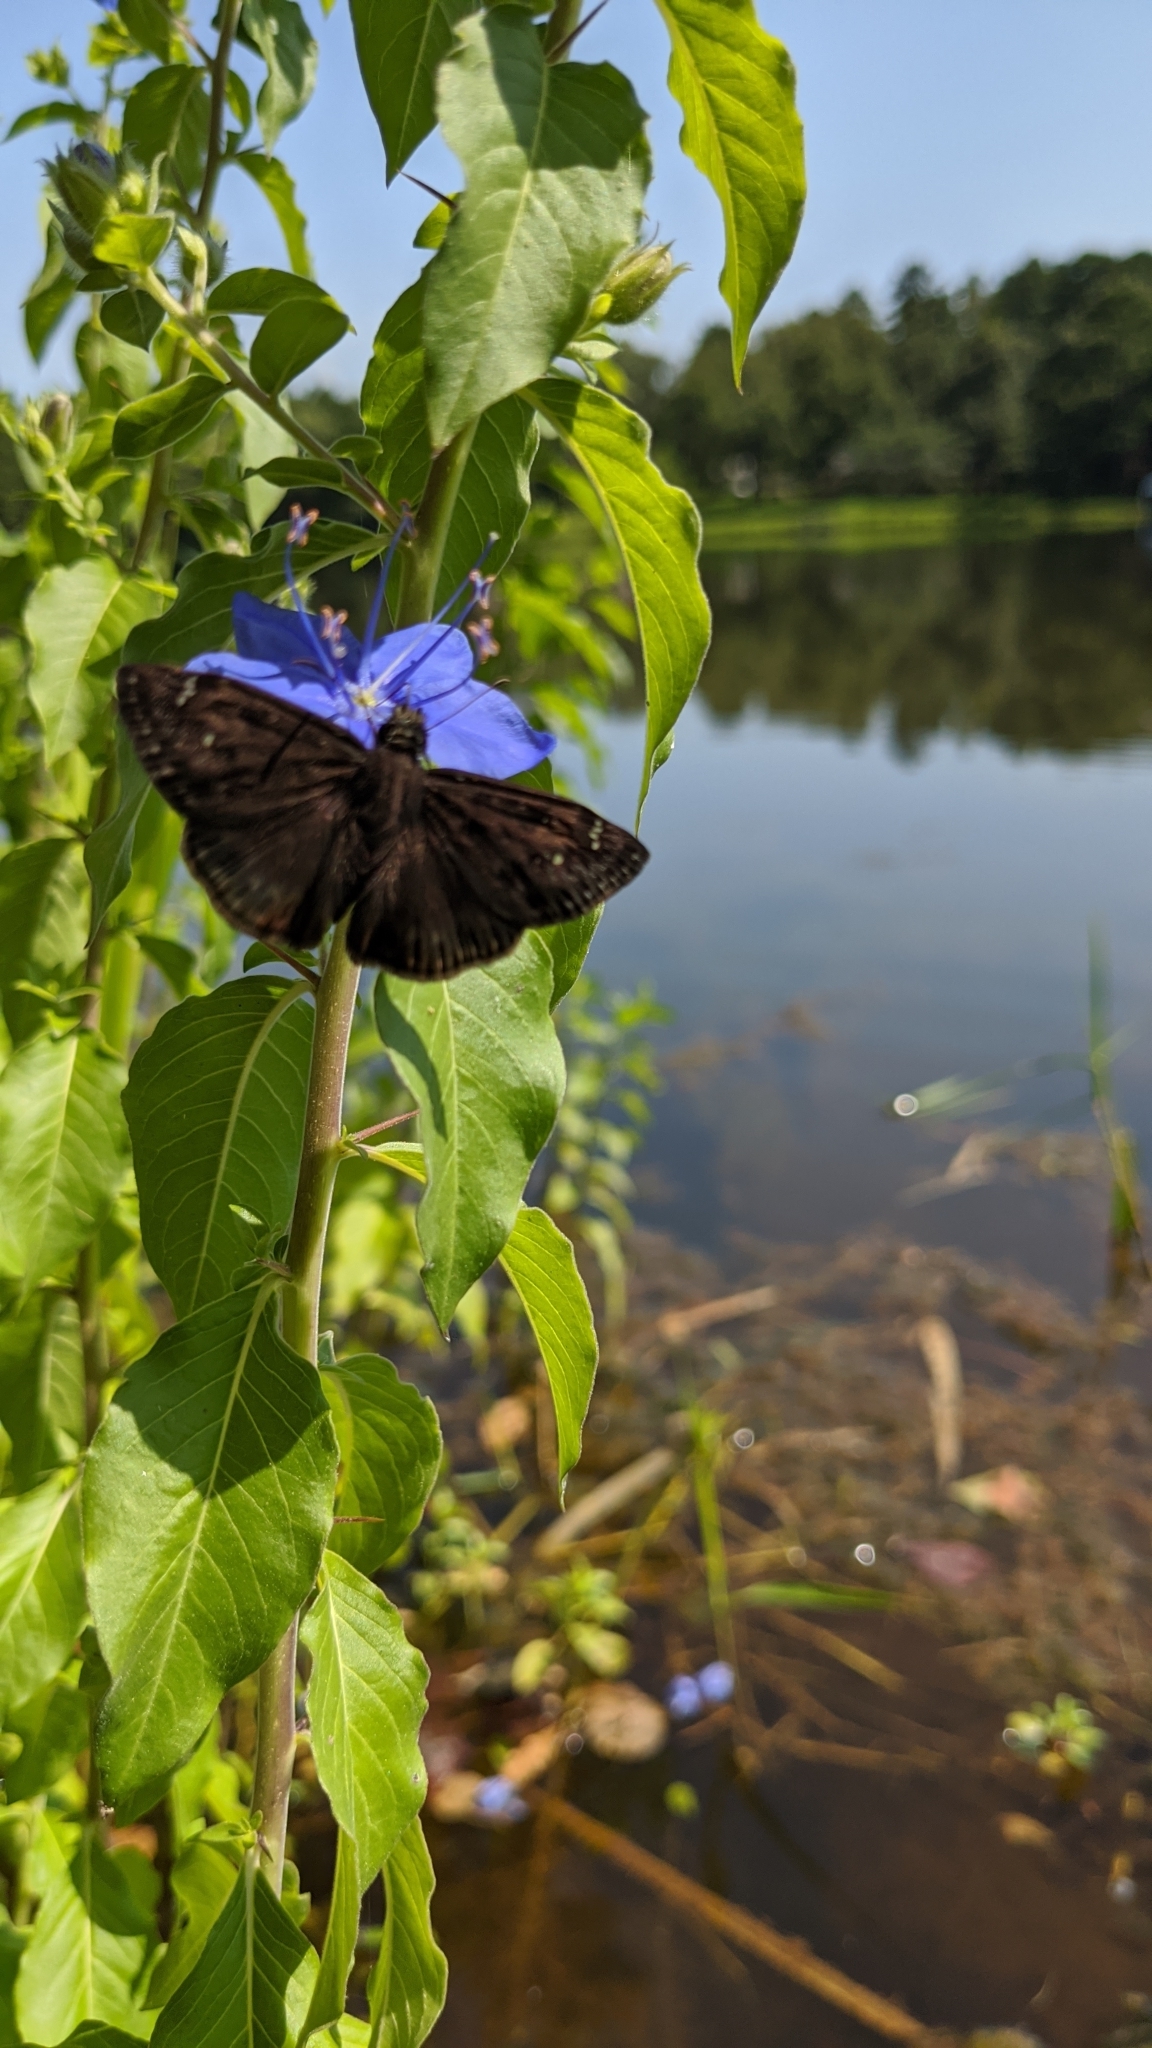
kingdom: Animalia
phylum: Arthropoda
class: Insecta
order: Lepidoptera
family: Hesperiidae
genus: Erynnis
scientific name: Erynnis horatius
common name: Horace's duskywing
